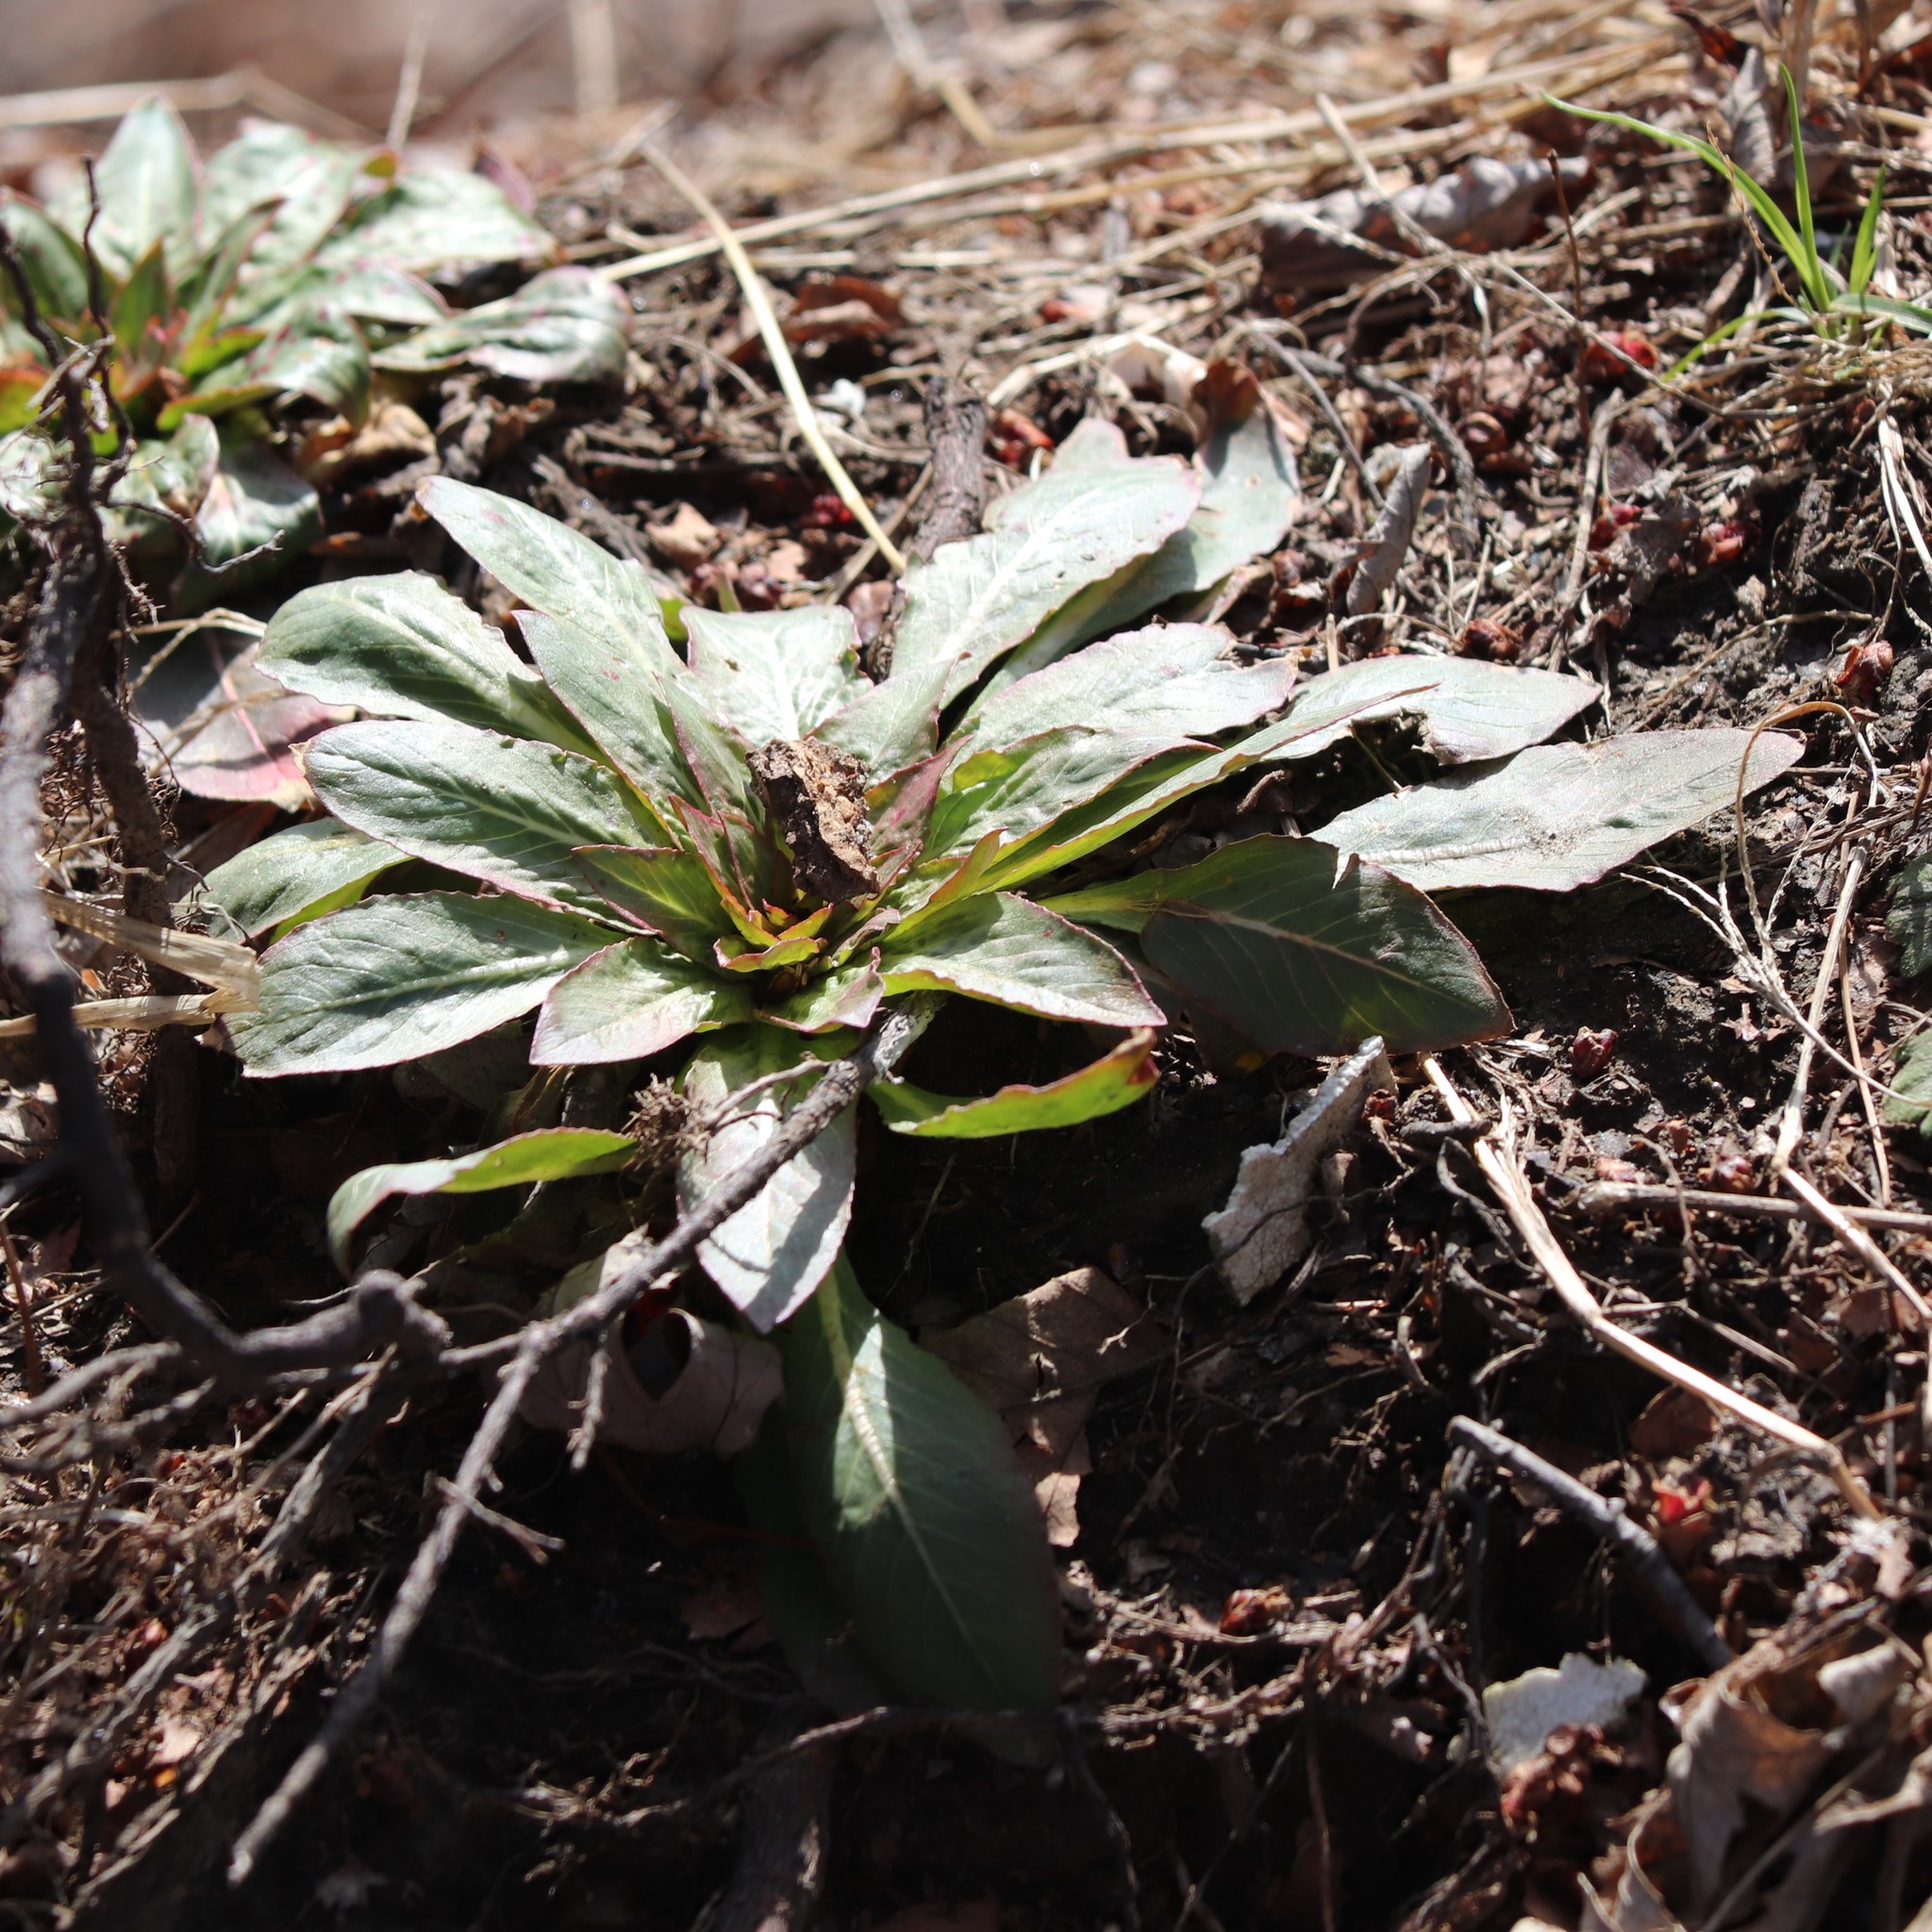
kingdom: Plantae
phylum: Tracheophyta
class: Magnoliopsida
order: Myrtales
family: Onagraceae
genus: Oenothera
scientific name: Oenothera
